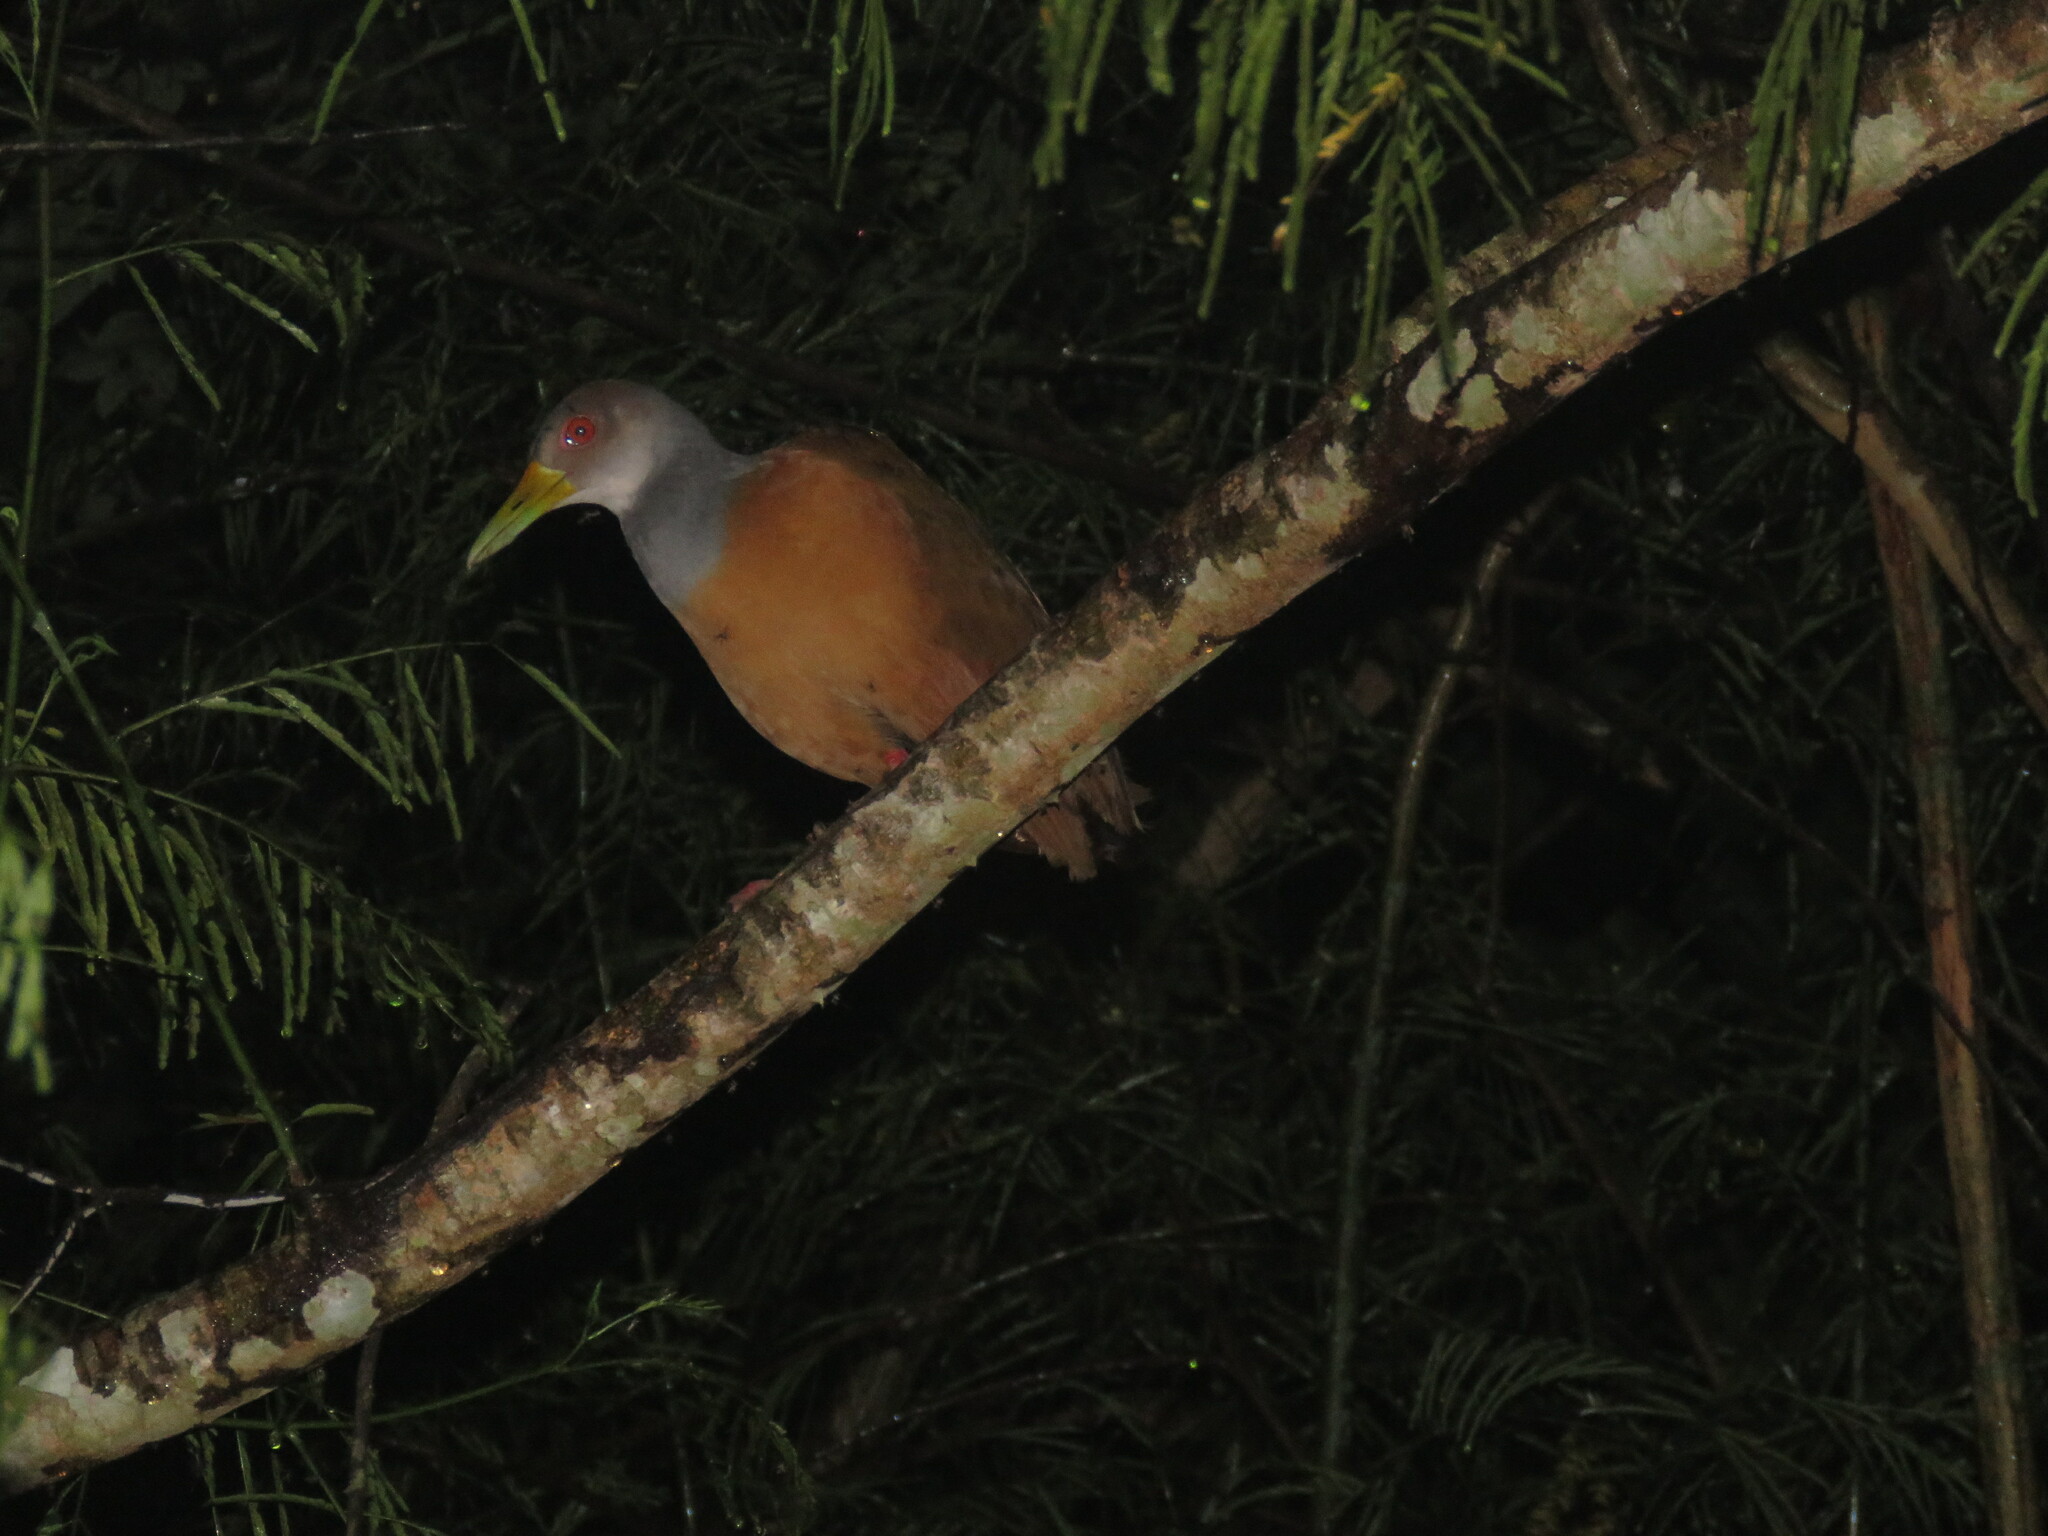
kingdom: Animalia
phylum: Chordata
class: Aves
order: Gruiformes
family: Rallidae
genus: Aramides
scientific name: Aramides cajanea
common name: Gray-necked wood-rail
